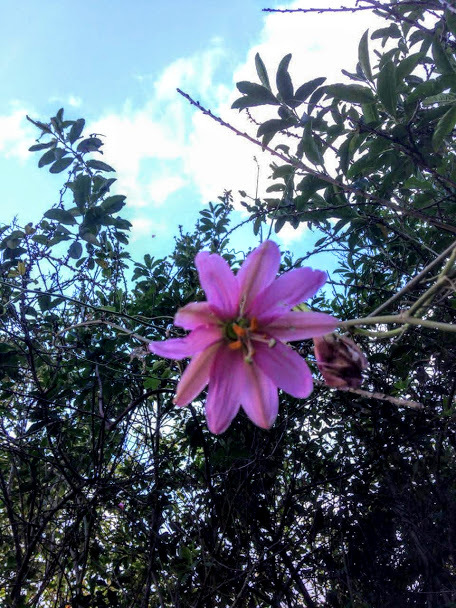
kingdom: Plantae
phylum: Tracheophyta
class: Magnoliopsida
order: Malpighiales
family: Passifloraceae
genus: Passiflora
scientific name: Passiflora tarminiana
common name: Banana poka
